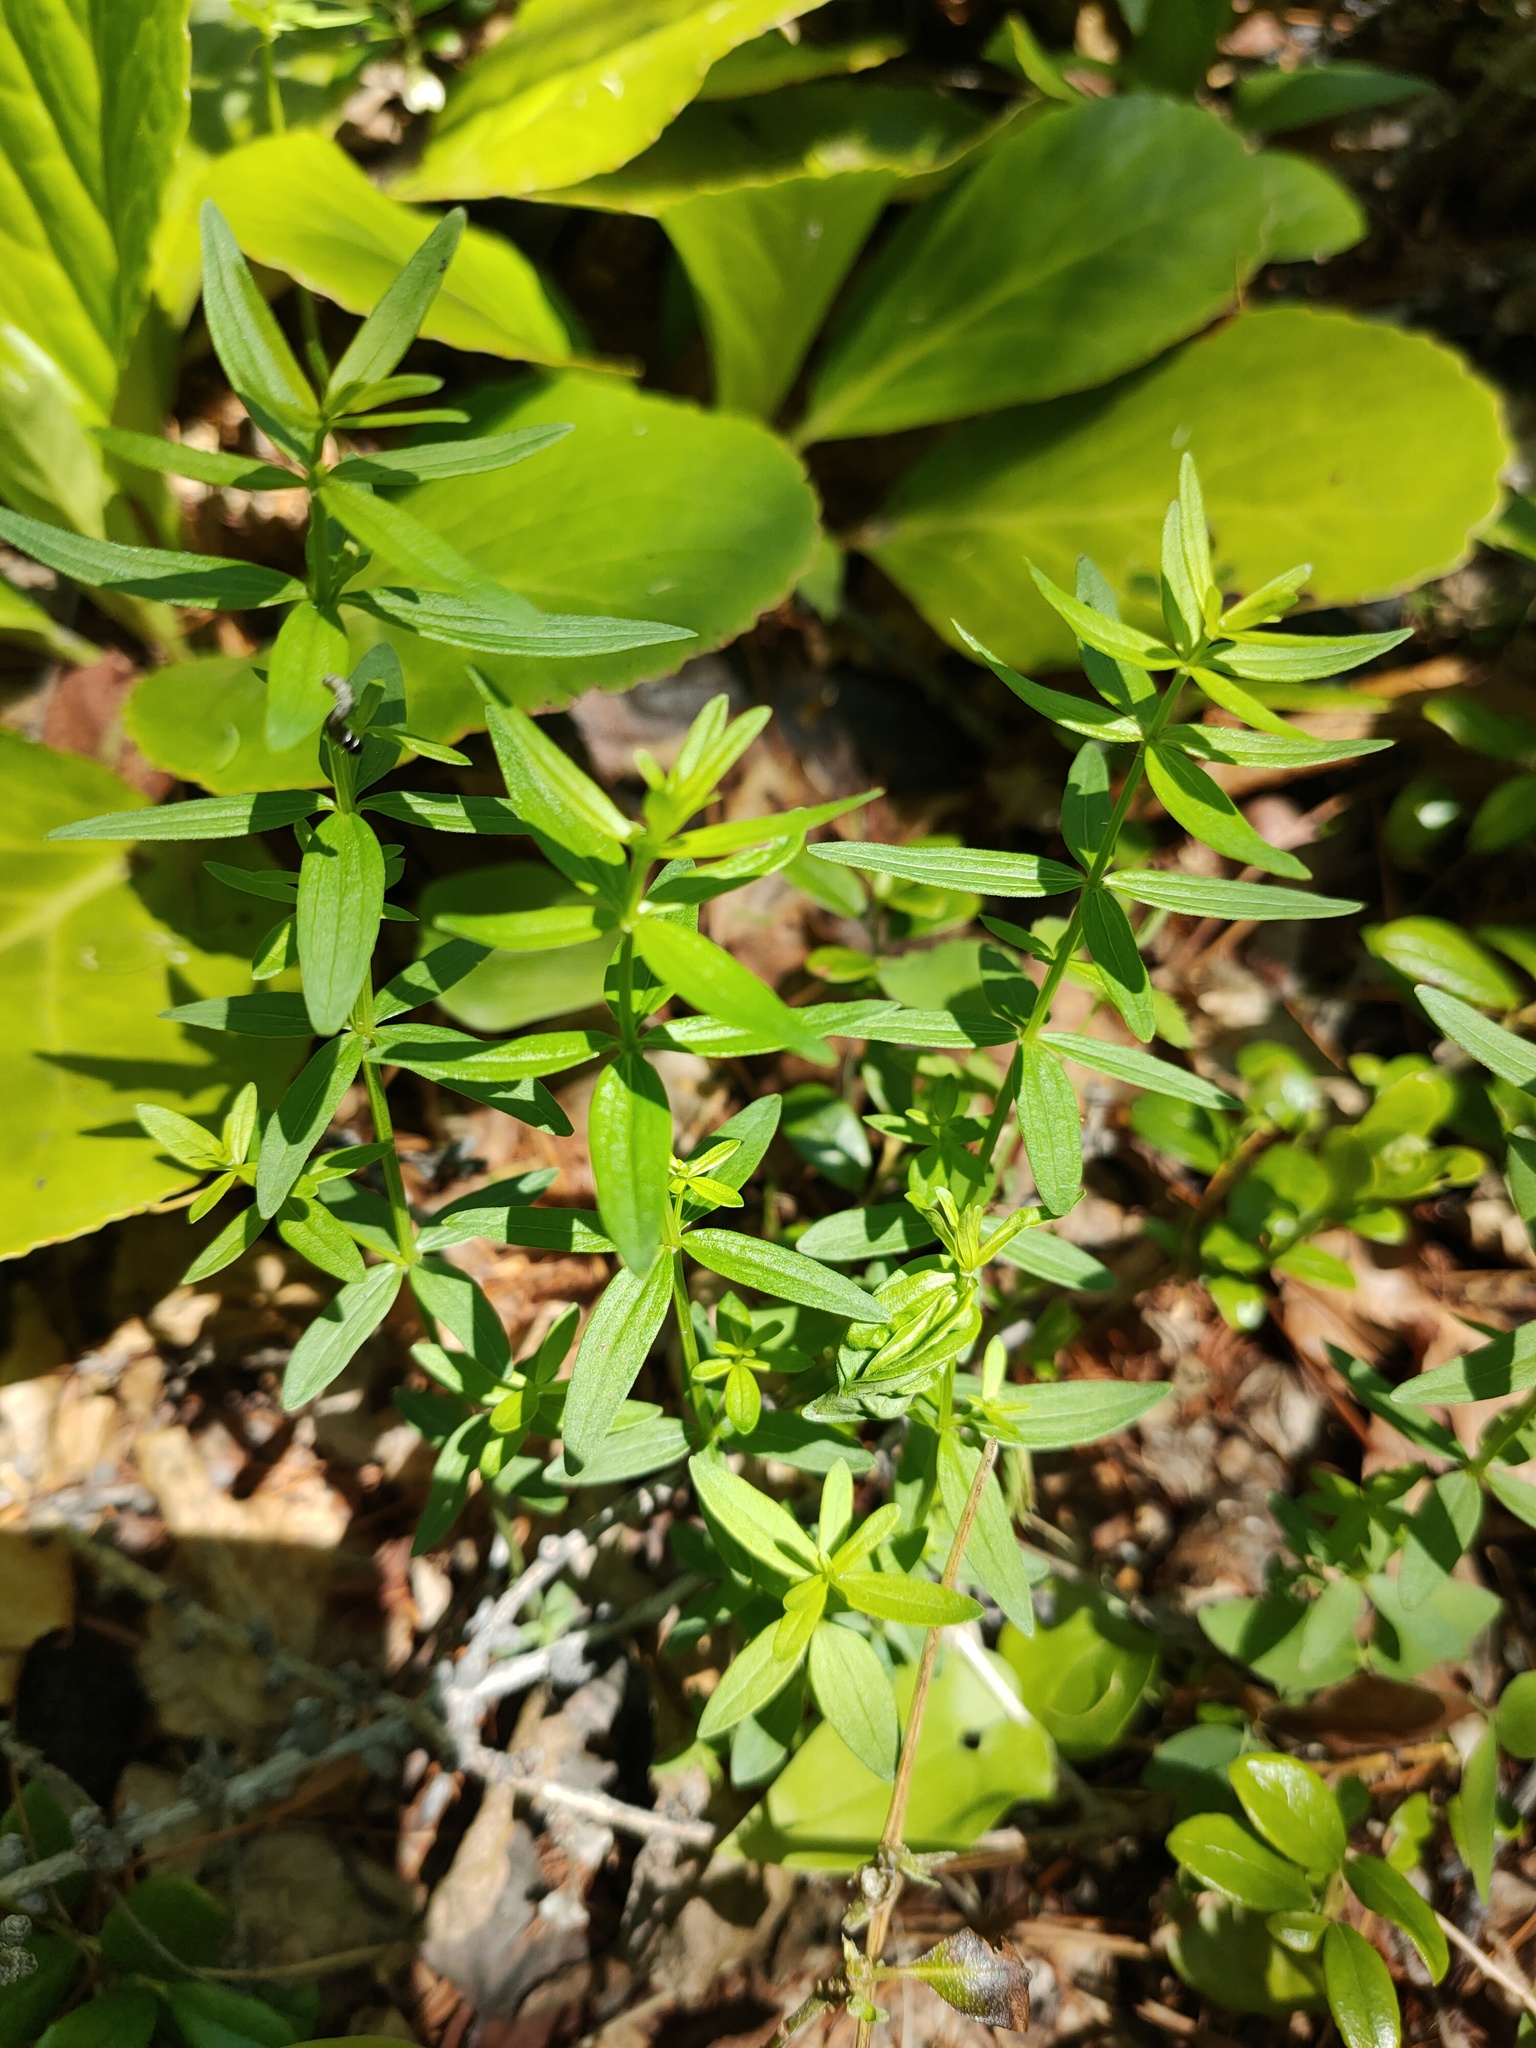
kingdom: Plantae
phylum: Tracheophyta
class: Magnoliopsida
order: Gentianales
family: Rubiaceae
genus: Galium
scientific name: Galium boreale
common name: Northern bedstraw
